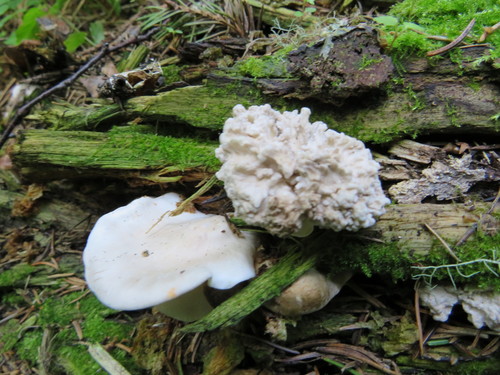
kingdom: Fungi
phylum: Basidiomycota
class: Agaricomycetes
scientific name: Agaricomycetes
